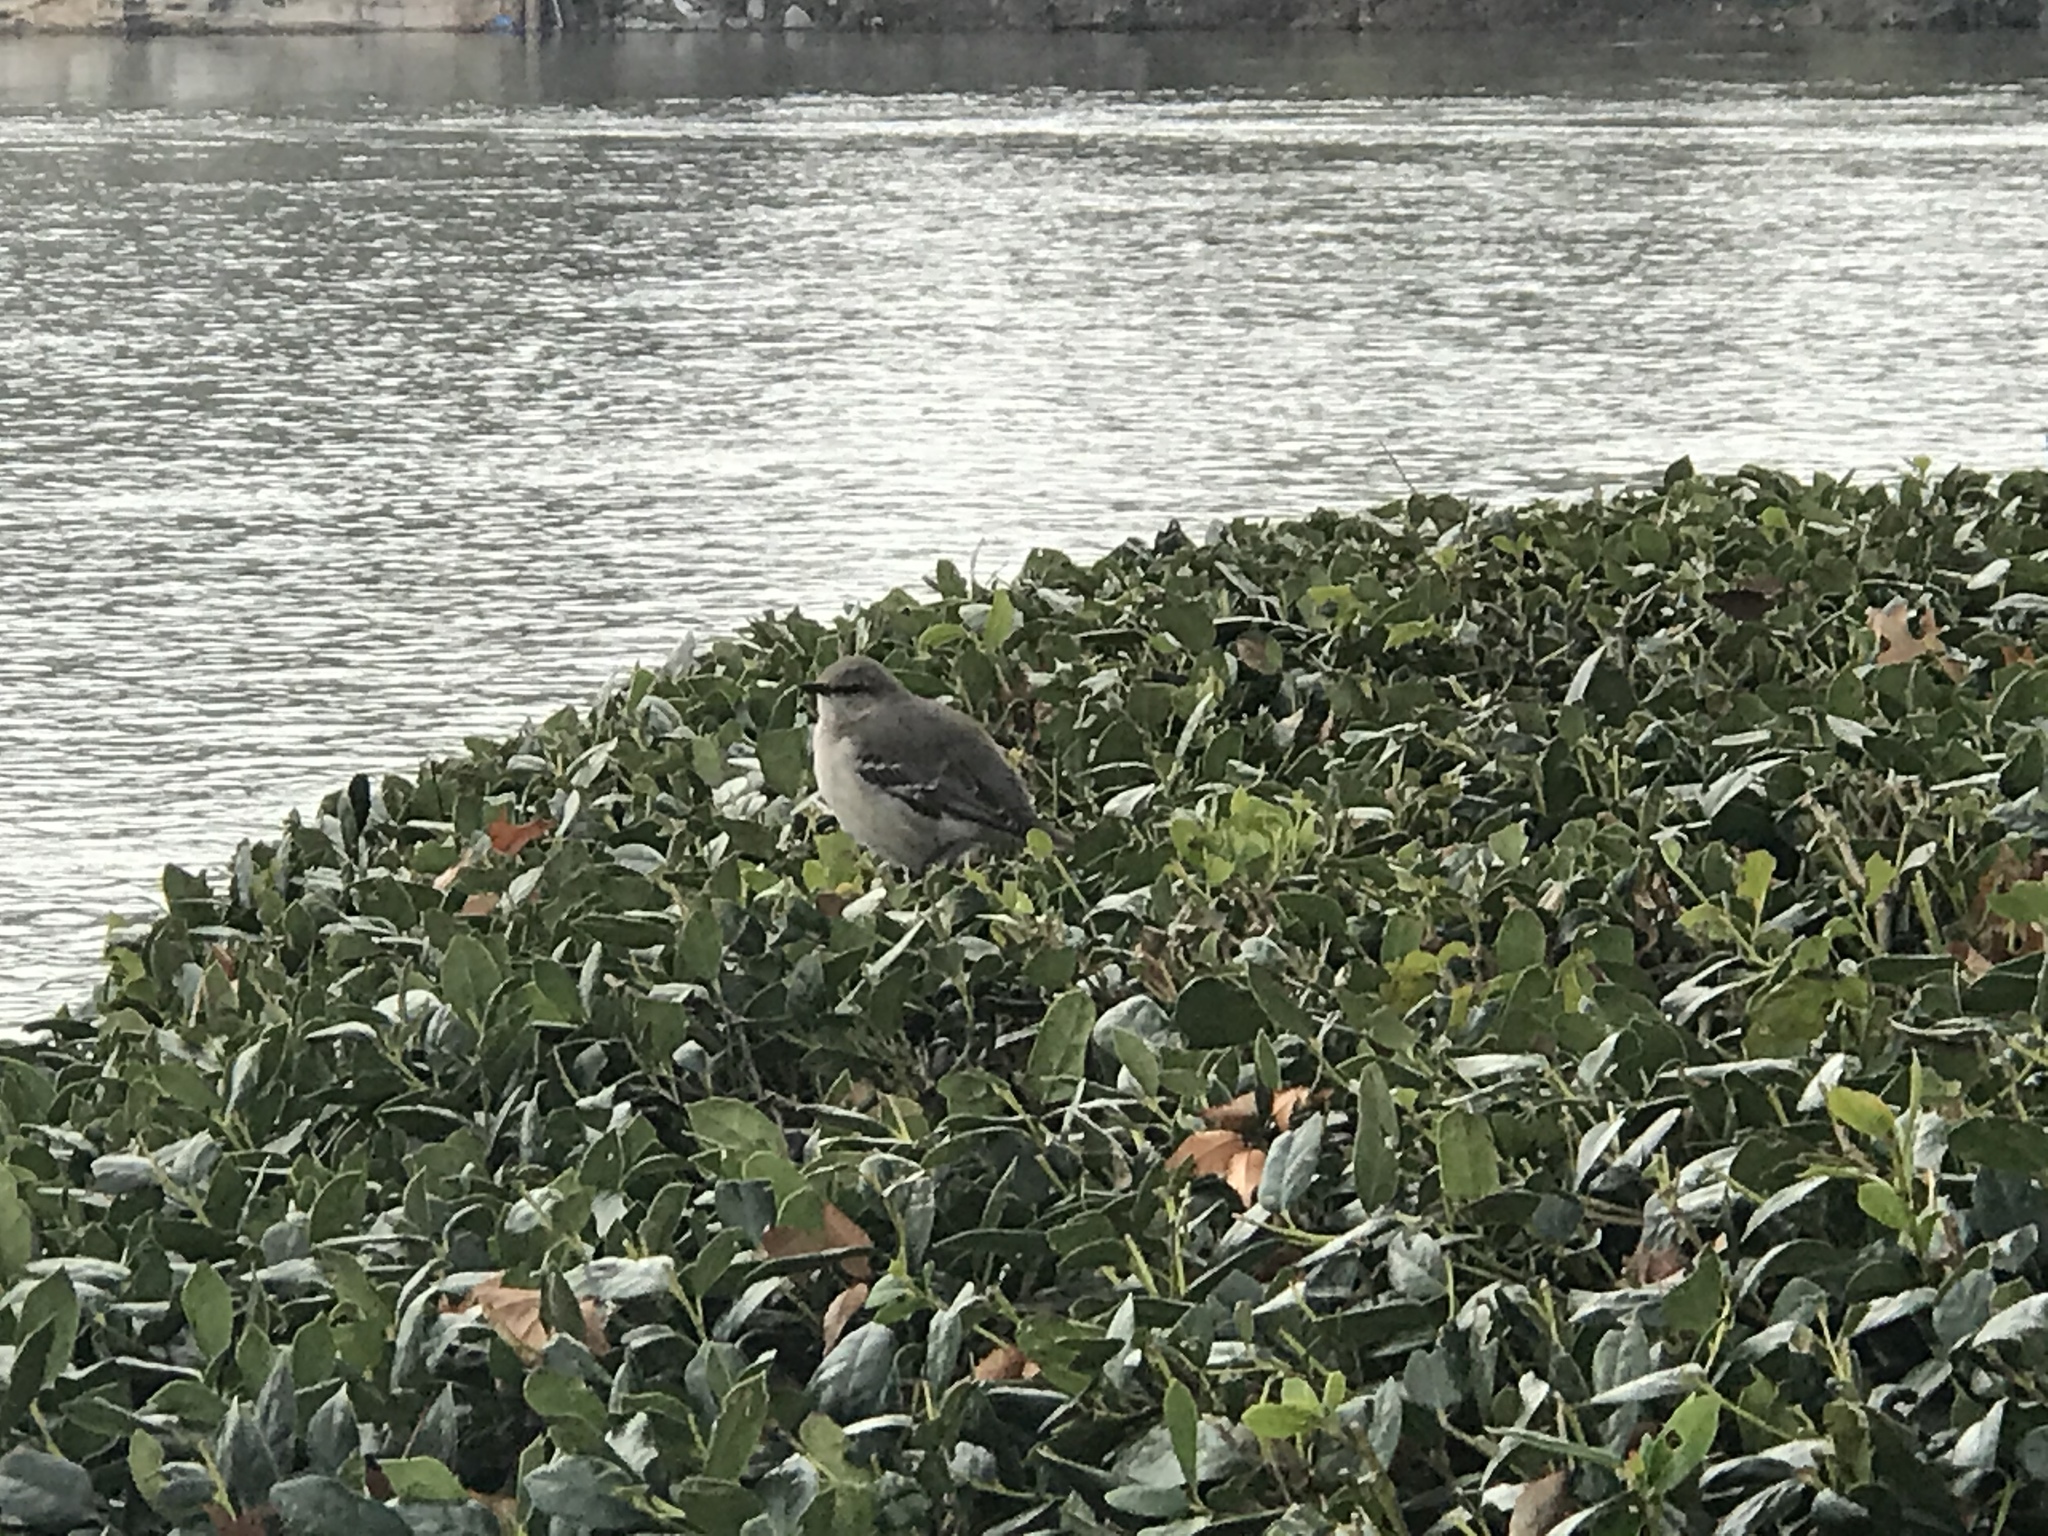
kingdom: Animalia
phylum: Chordata
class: Aves
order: Passeriformes
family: Mimidae
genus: Mimus
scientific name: Mimus polyglottos
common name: Northern mockingbird
